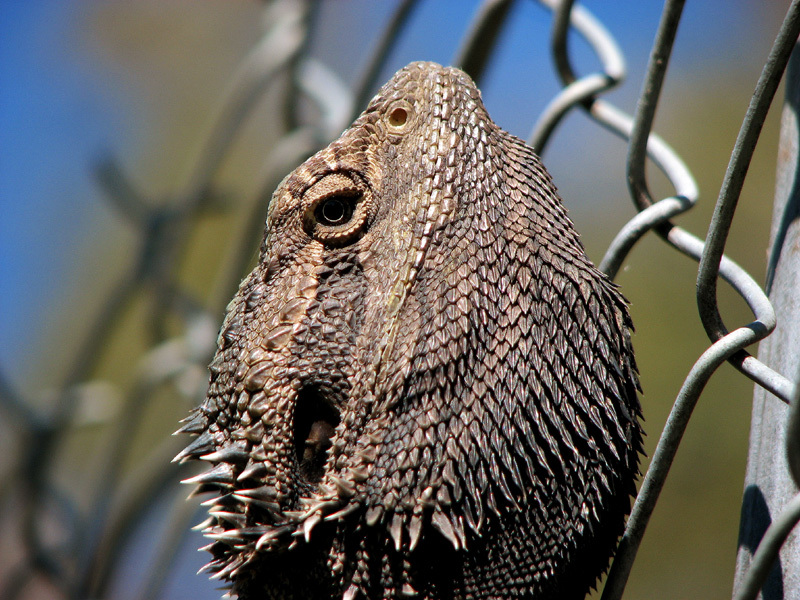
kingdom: Animalia
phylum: Chordata
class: Squamata
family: Agamidae
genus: Pogona
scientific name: Pogona barbata
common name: Bearded dragon
